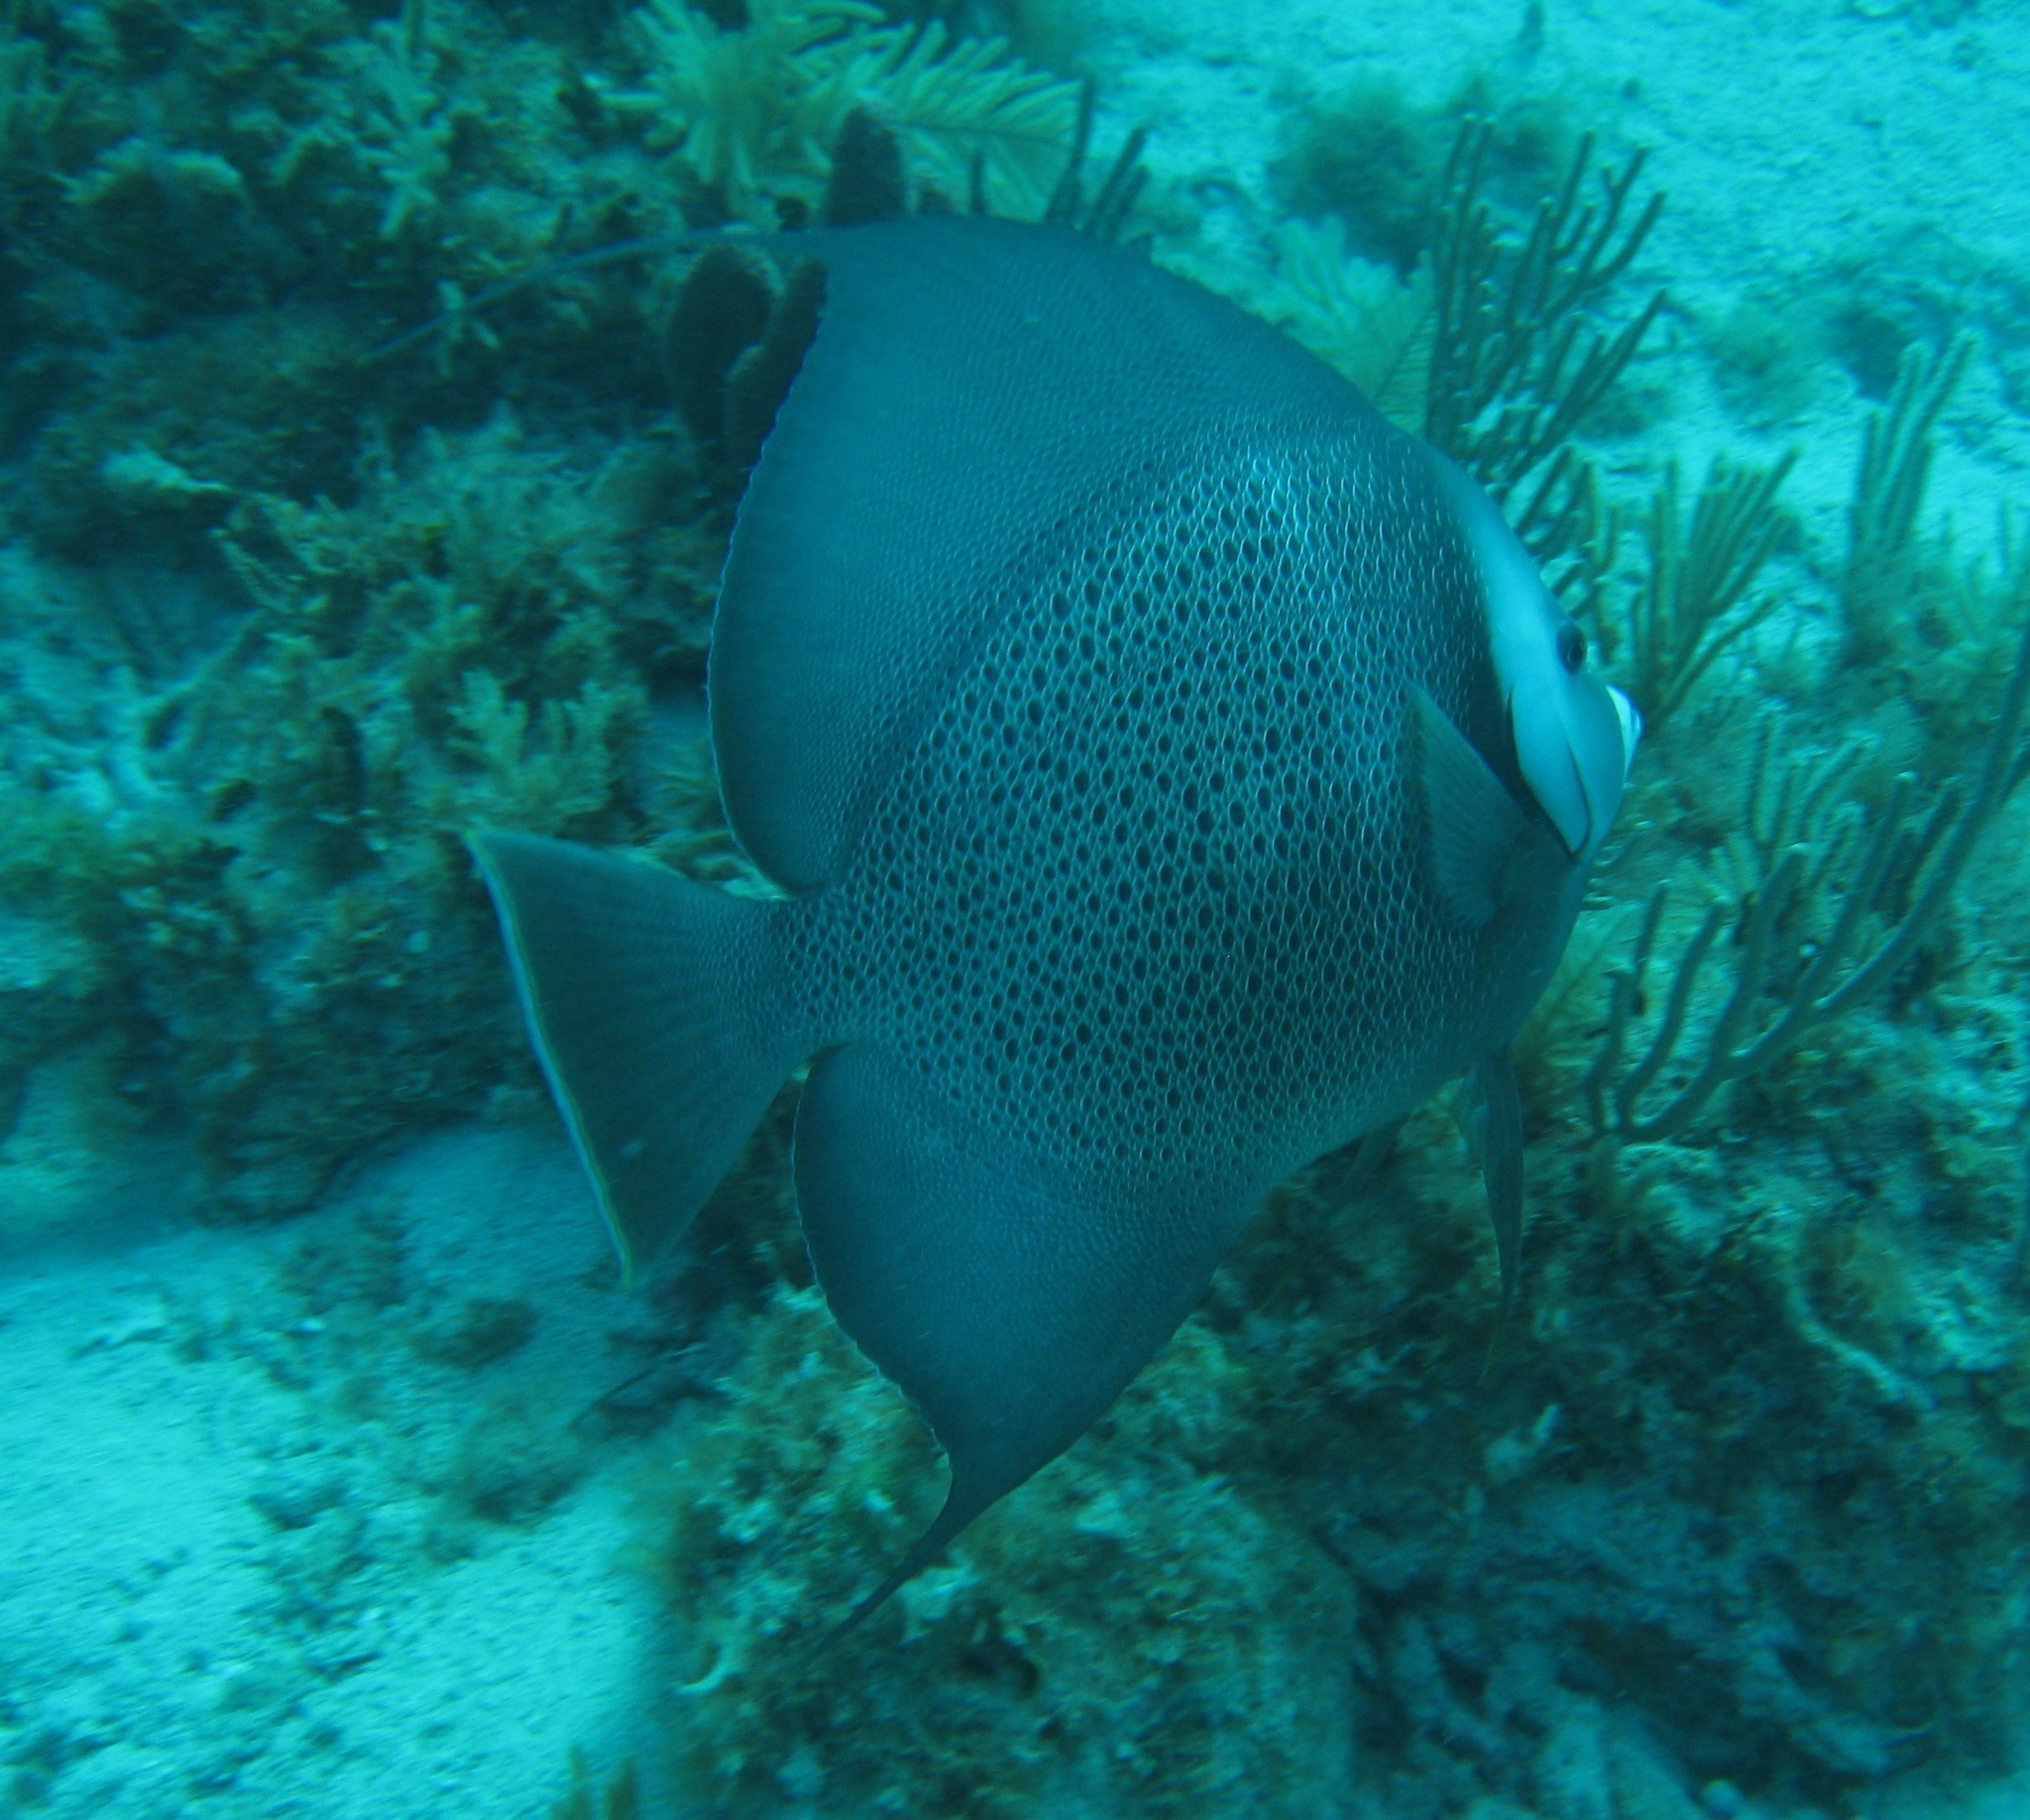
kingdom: Animalia
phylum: Chordata
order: Perciformes
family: Pomacanthidae
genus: Pomacanthus
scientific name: Pomacanthus arcuatus
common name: Gray angelfish
